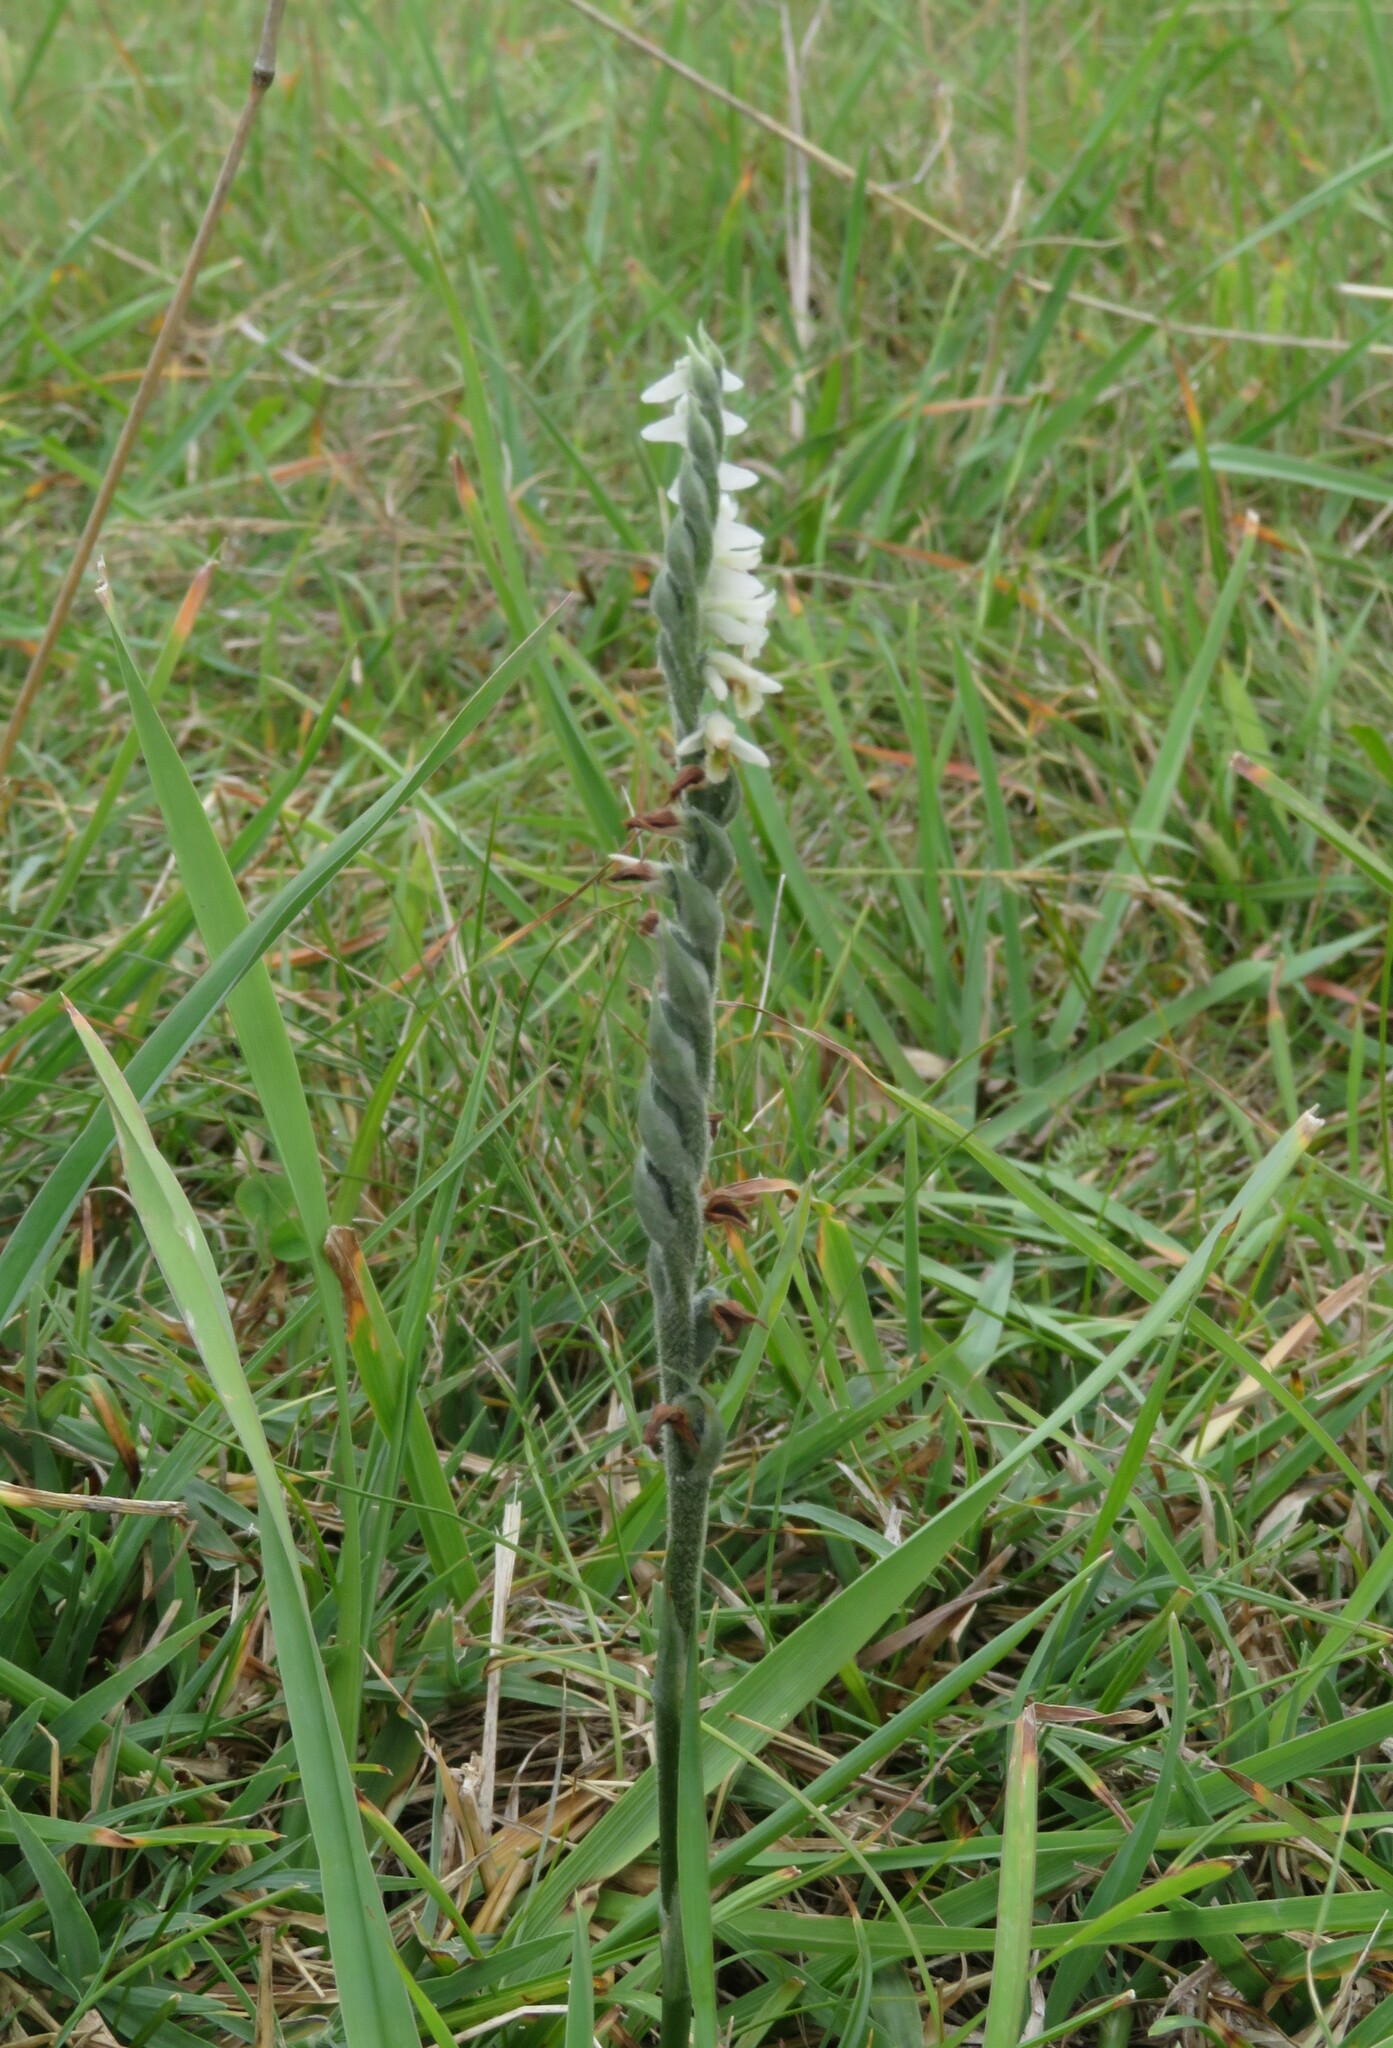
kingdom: Plantae
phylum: Tracheophyta
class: Liliopsida
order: Asparagales
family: Orchidaceae
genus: Spiranthes
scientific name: Spiranthes spiralis
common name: Autumn lady's-tresses
